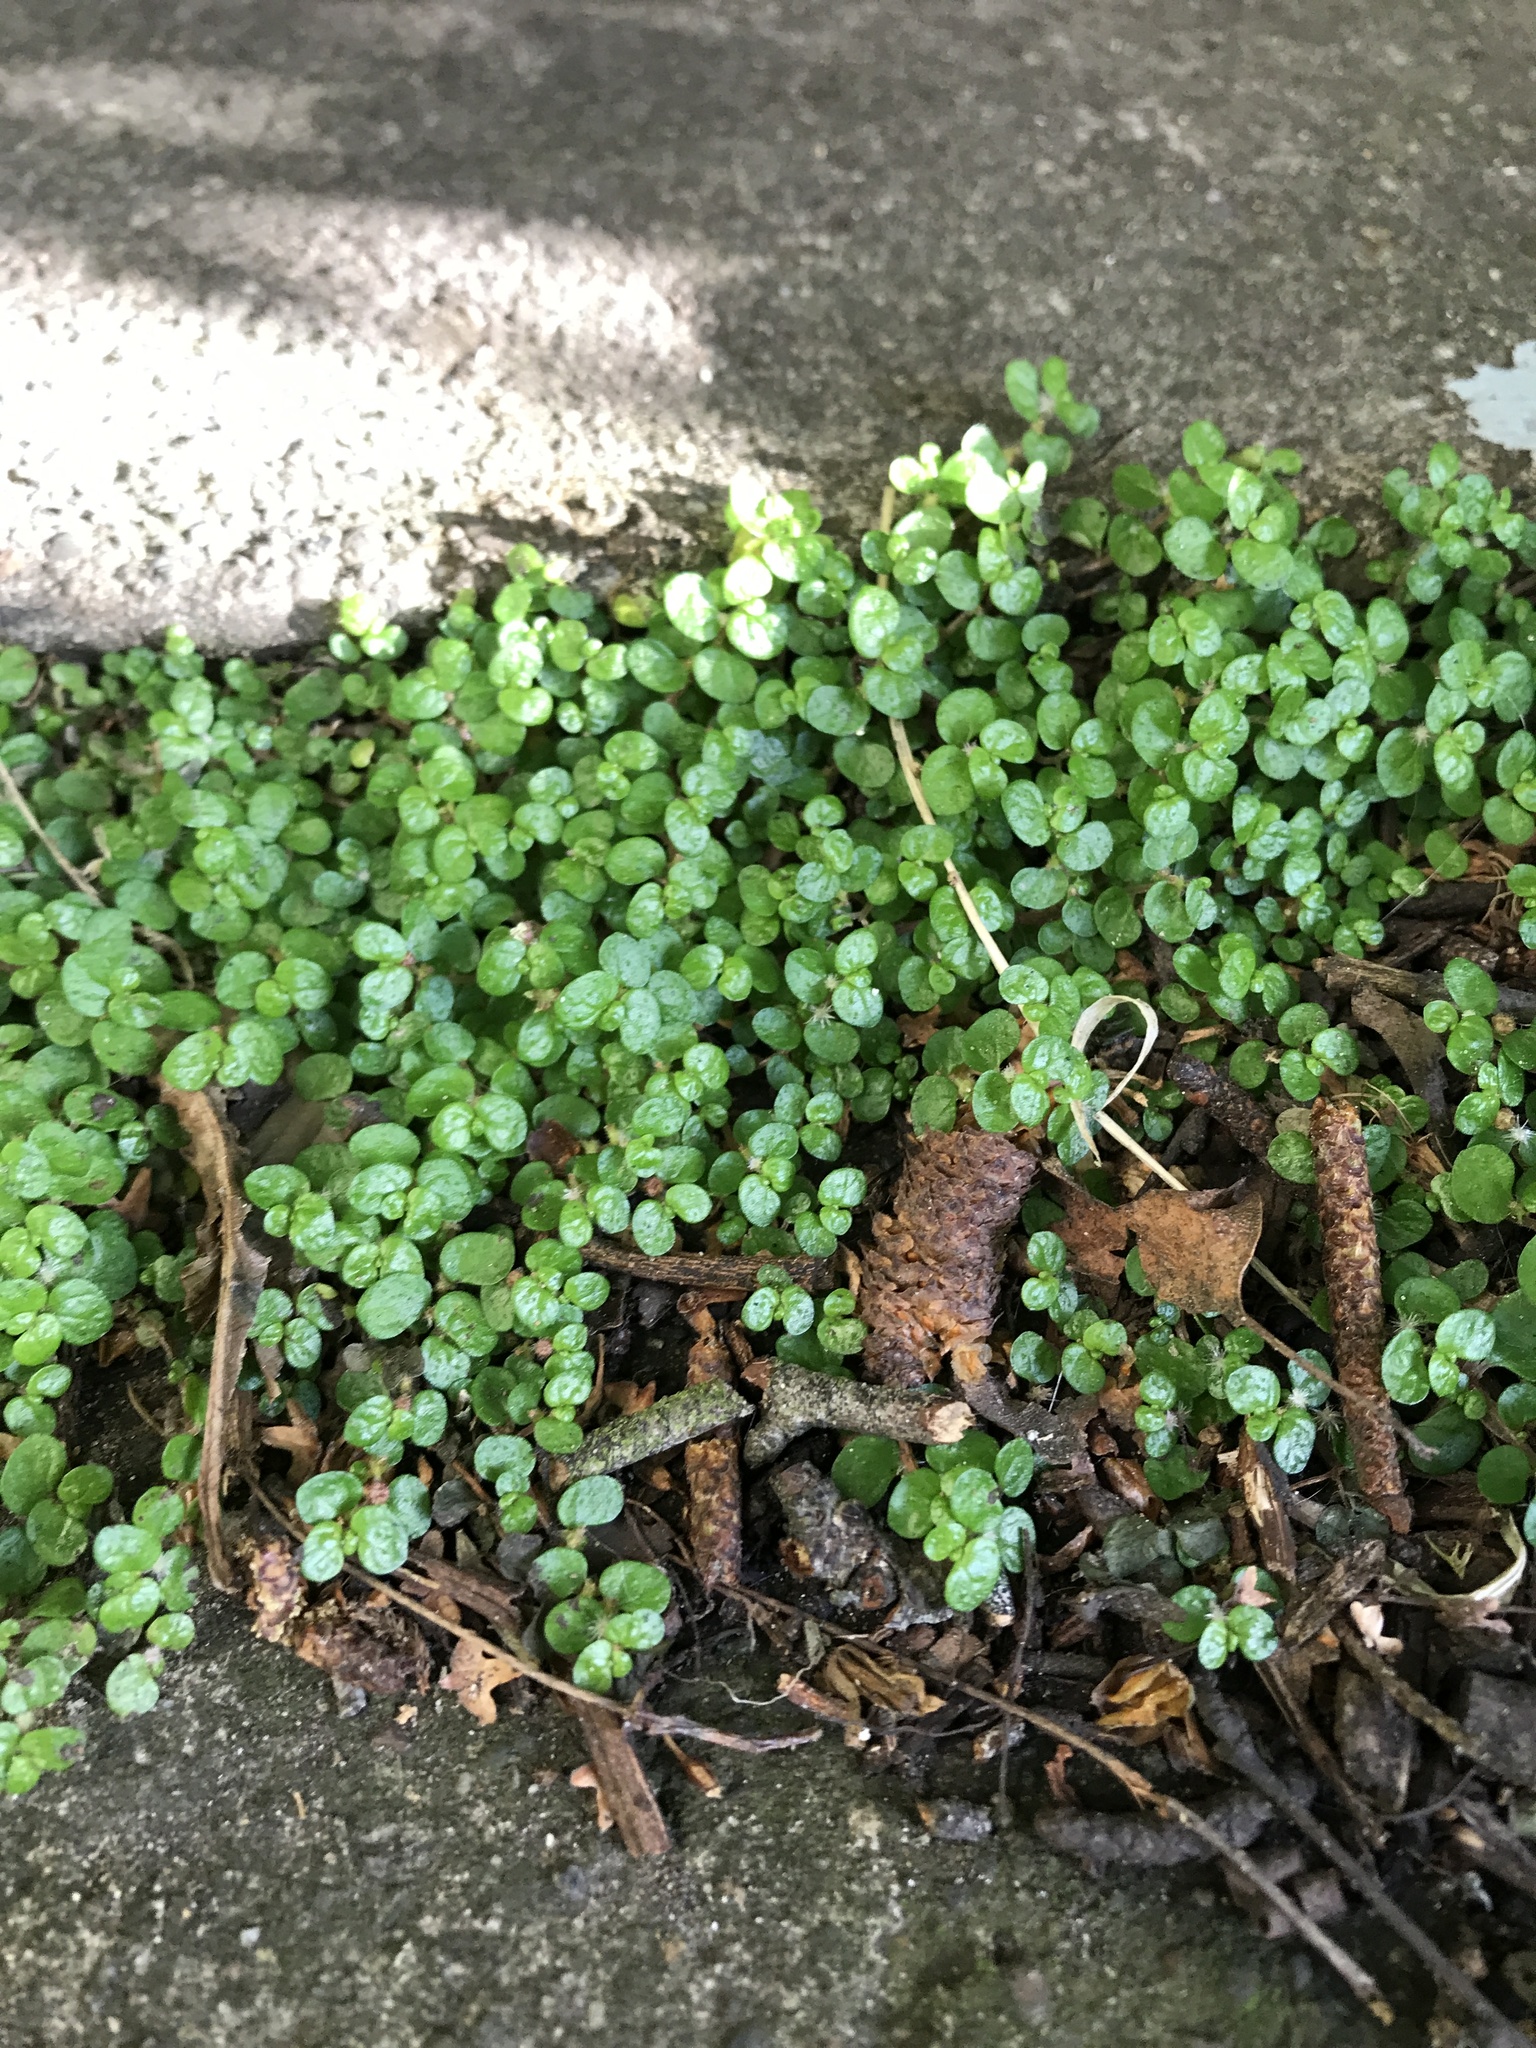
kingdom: Plantae
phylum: Tracheophyta
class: Magnoliopsida
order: Rosales
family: Urticaceae
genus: Soleirolia
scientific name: Soleirolia soleirolii
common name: Mind-your-own-business
